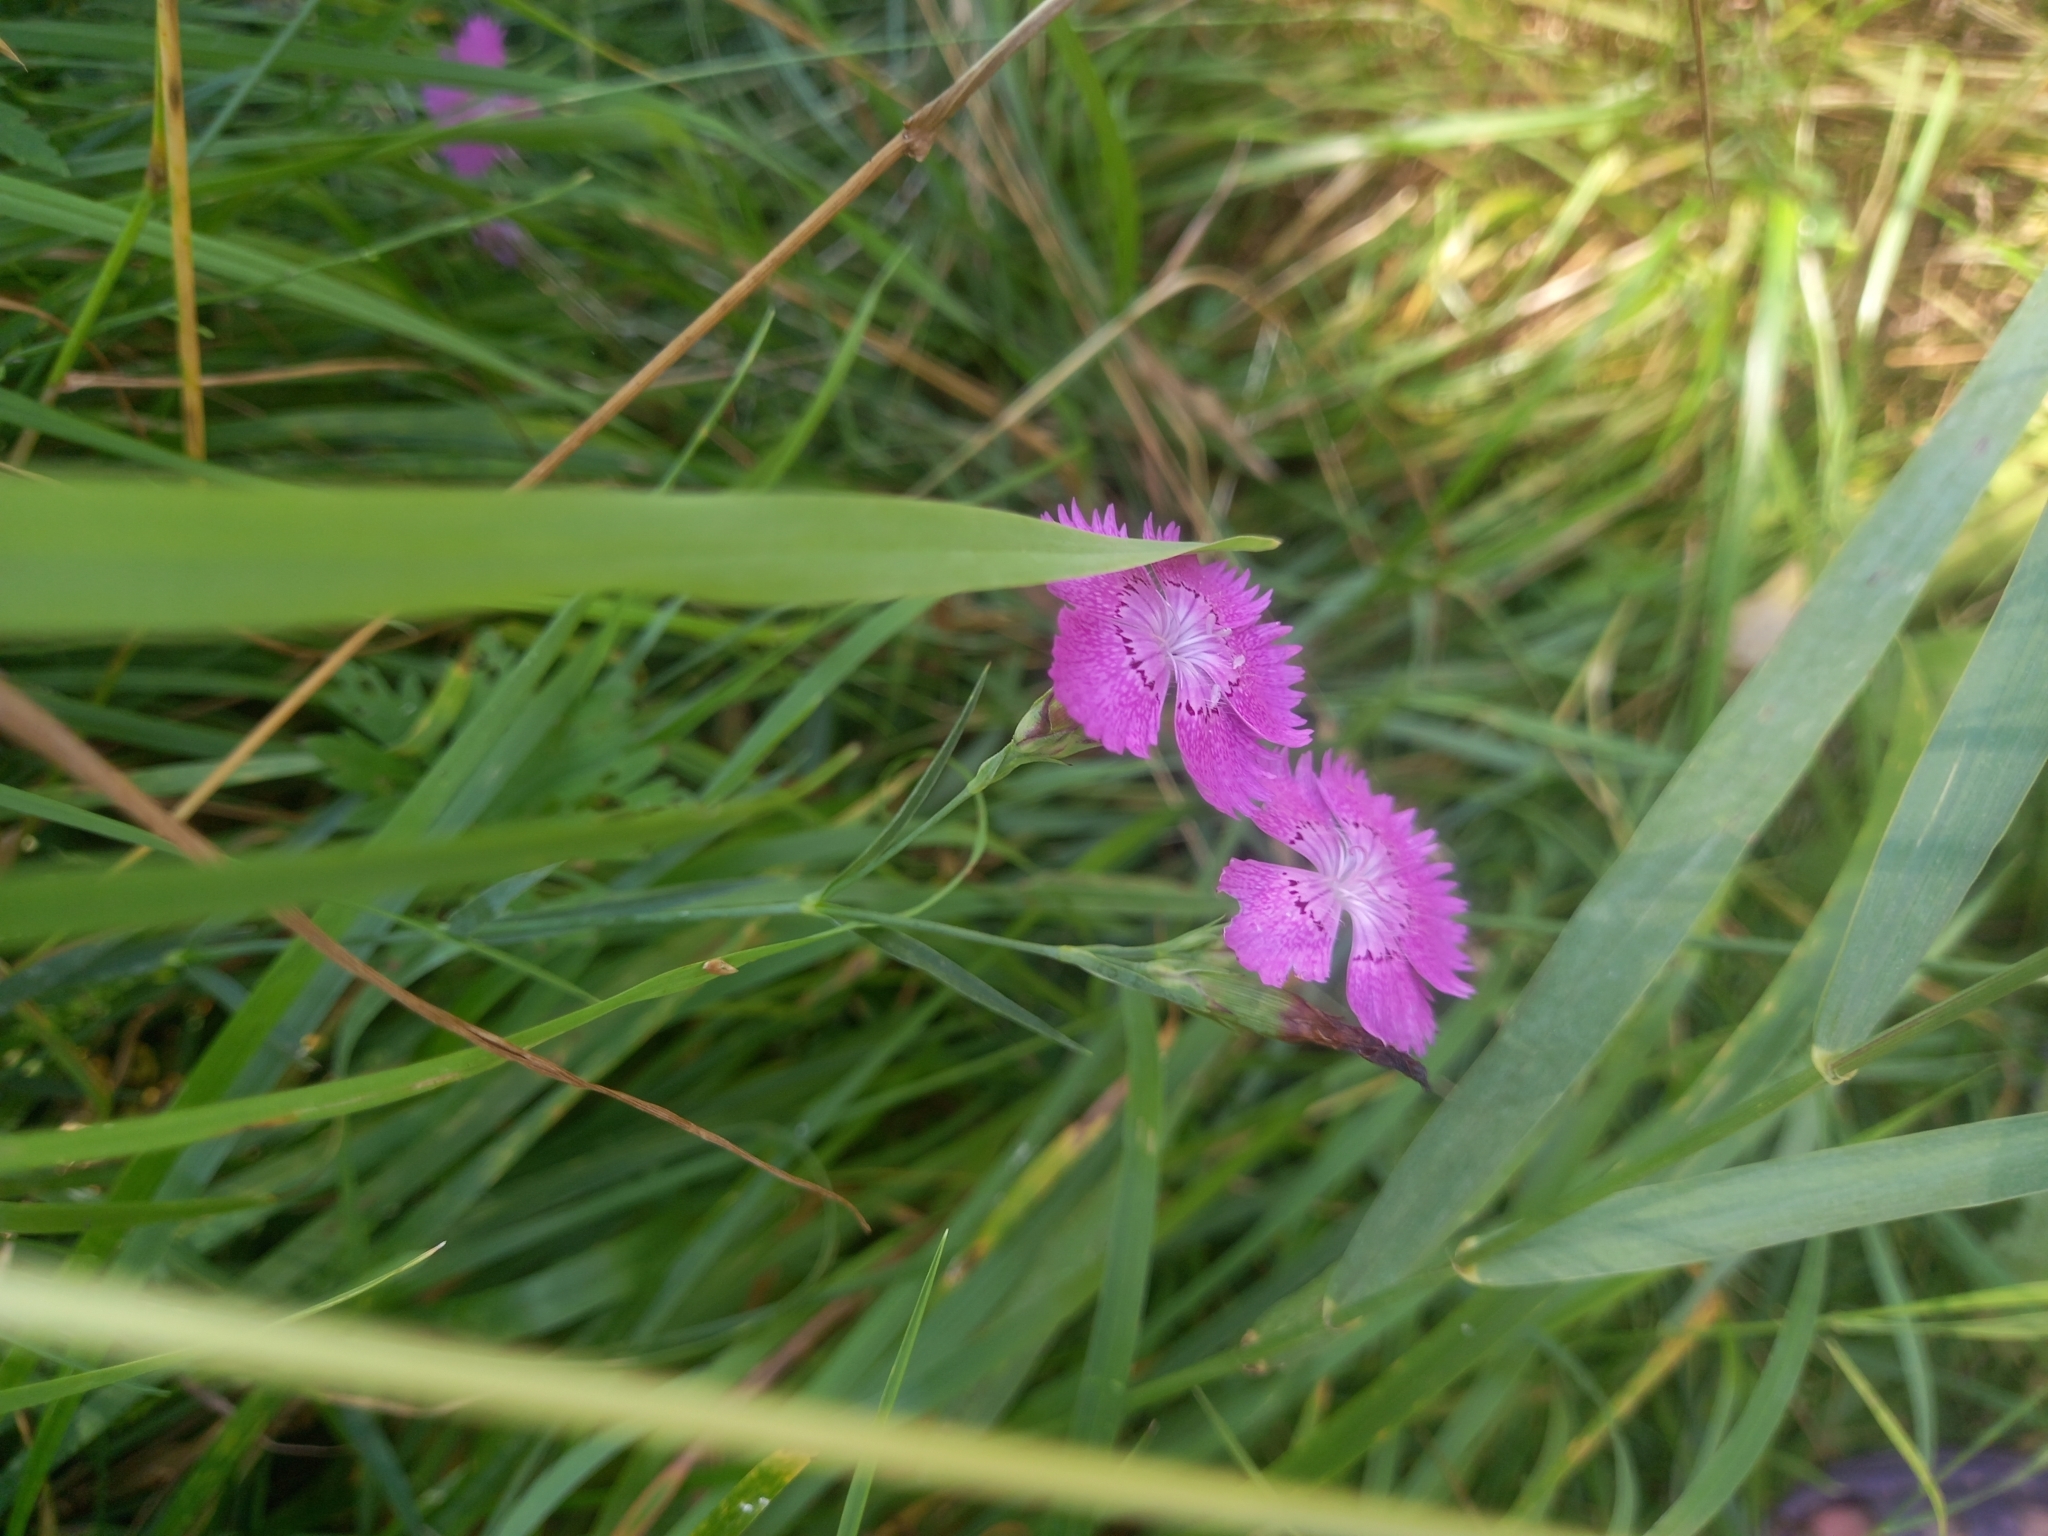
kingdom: Plantae
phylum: Tracheophyta
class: Magnoliopsida
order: Caryophyllales
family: Caryophyllaceae
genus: Dianthus
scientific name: Dianthus chinensis
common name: Rainbow pink
